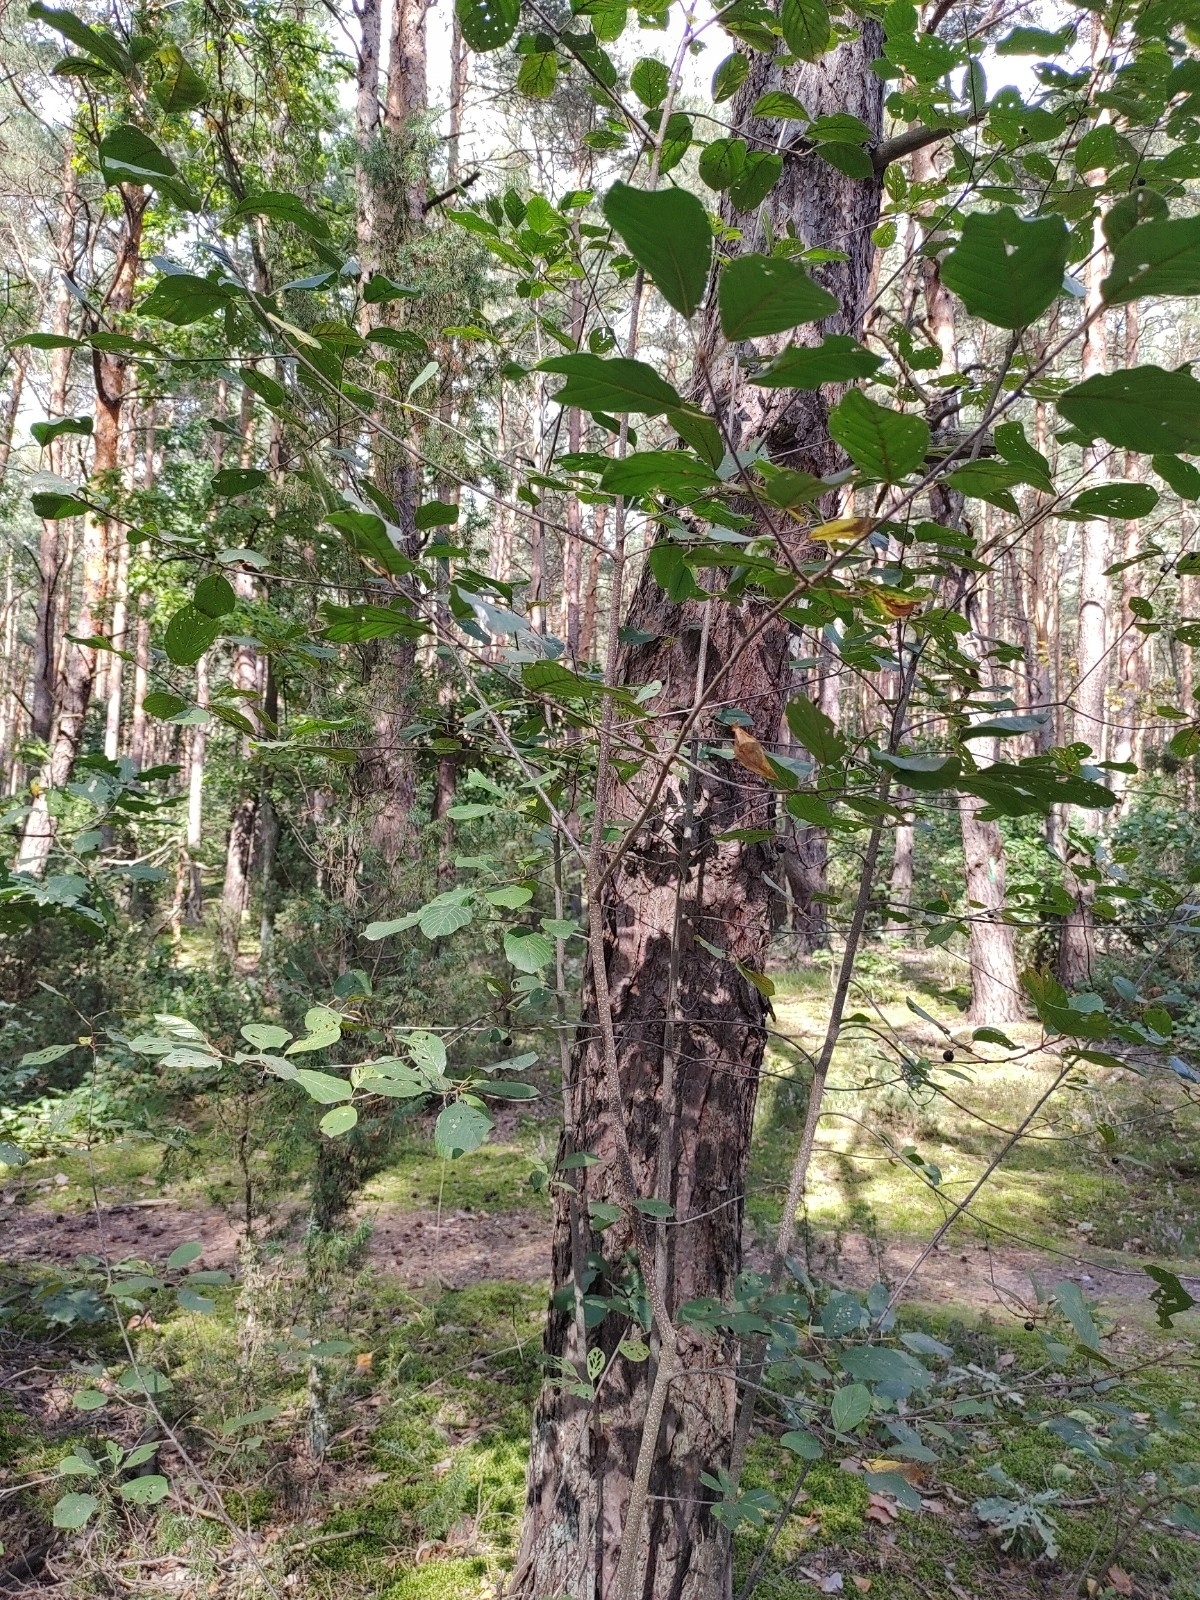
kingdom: Plantae
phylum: Tracheophyta
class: Magnoliopsida
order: Rosales
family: Rhamnaceae
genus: Frangula
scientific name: Frangula alnus
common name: Alder buckthorn
